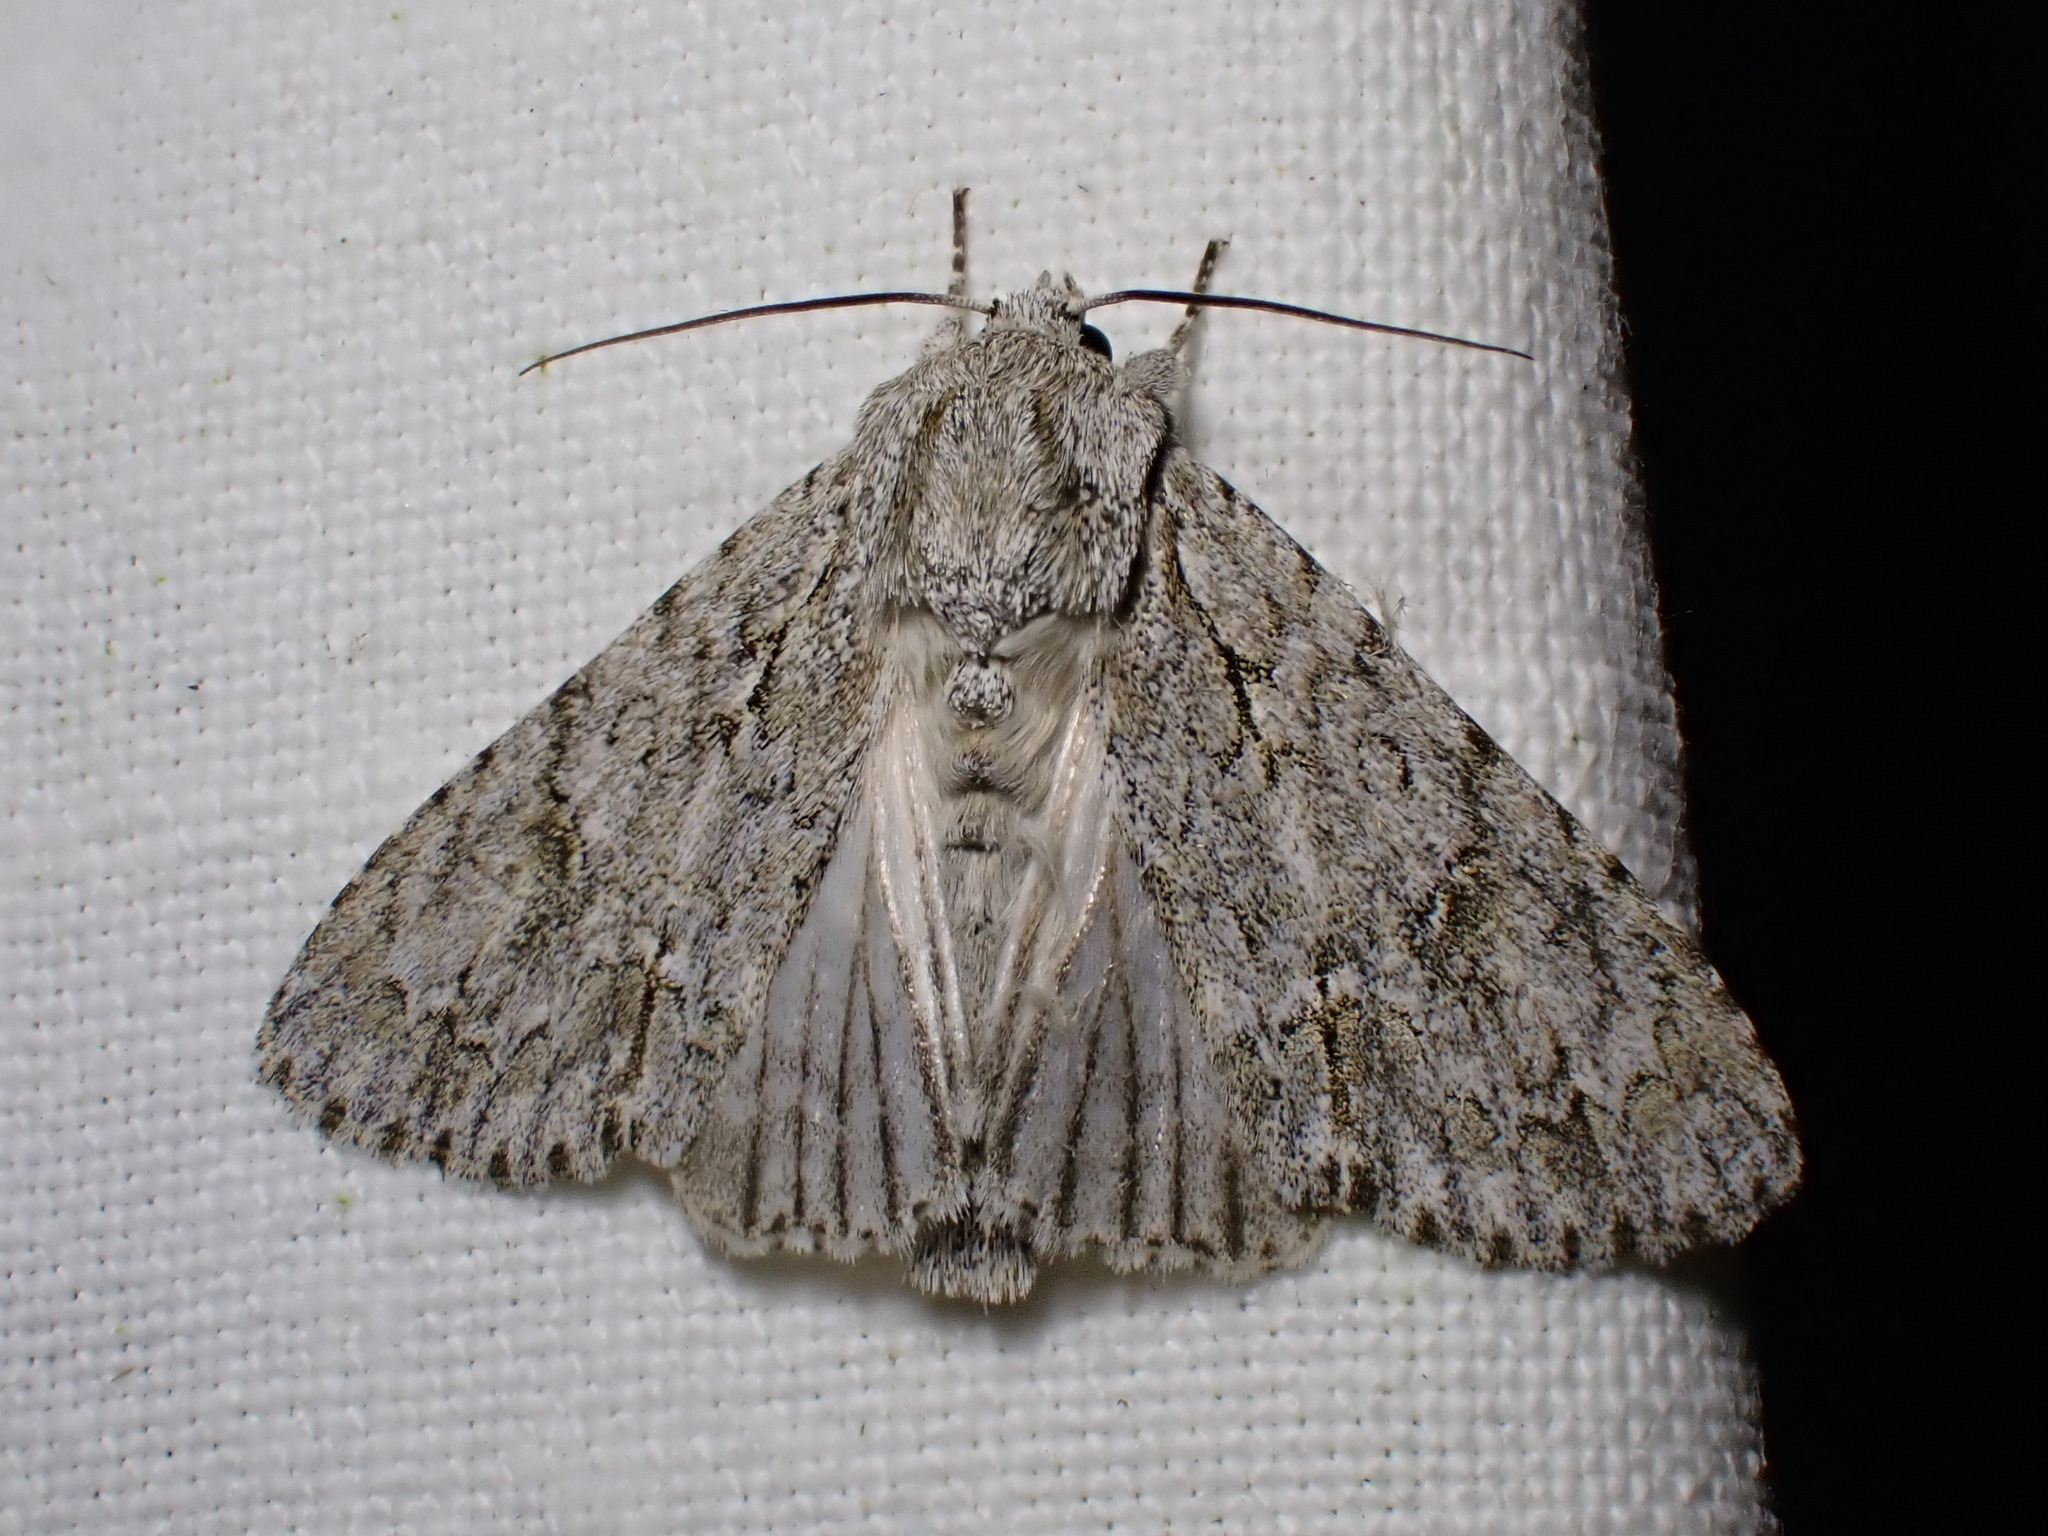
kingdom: Animalia
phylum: Arthropoda
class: Insecta
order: Lepidoptera
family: Noctuidae
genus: Acronicta
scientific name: Acronicta aceris
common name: Sycamore
